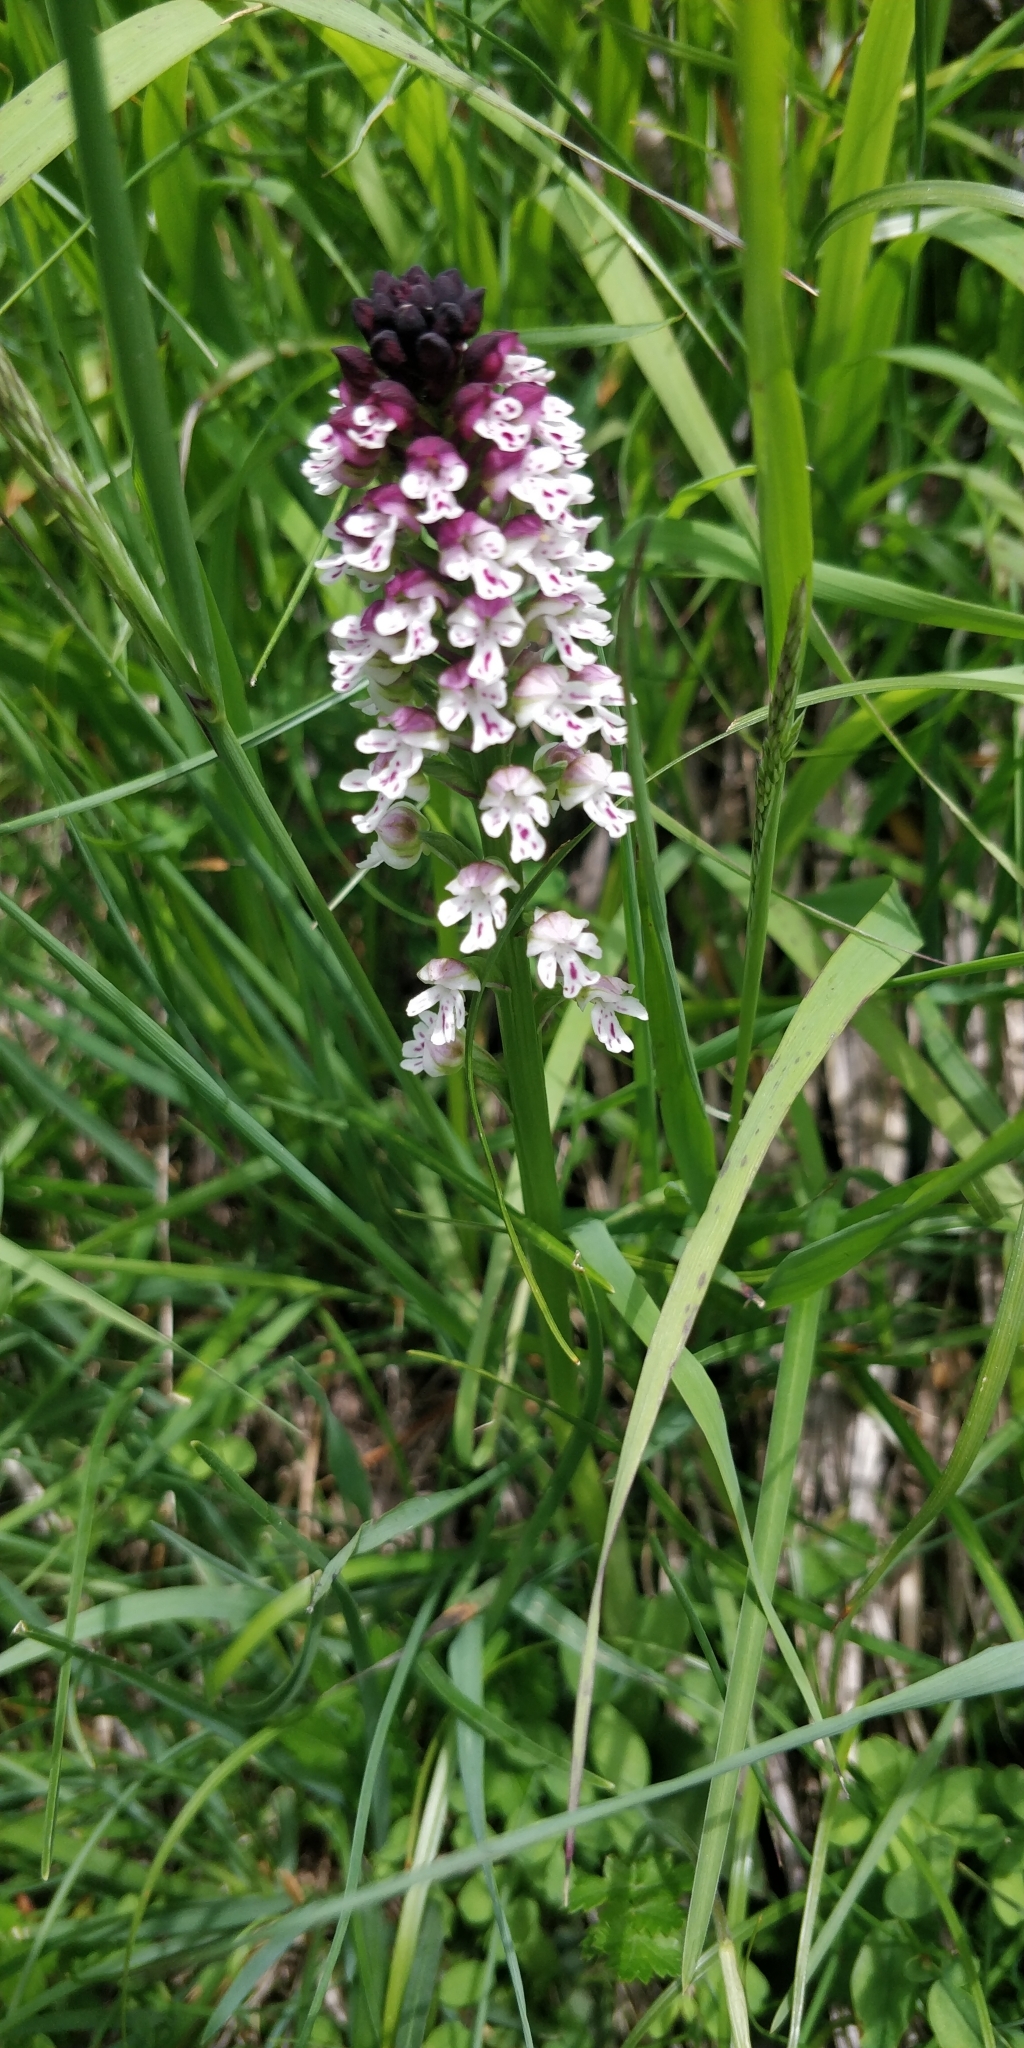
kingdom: Plantae
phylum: Tracheophyta
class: Liliopsida
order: Asparagales
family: Orchidaceae
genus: Neotinea
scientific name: Neotinea ustulata
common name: Burnt orchid
